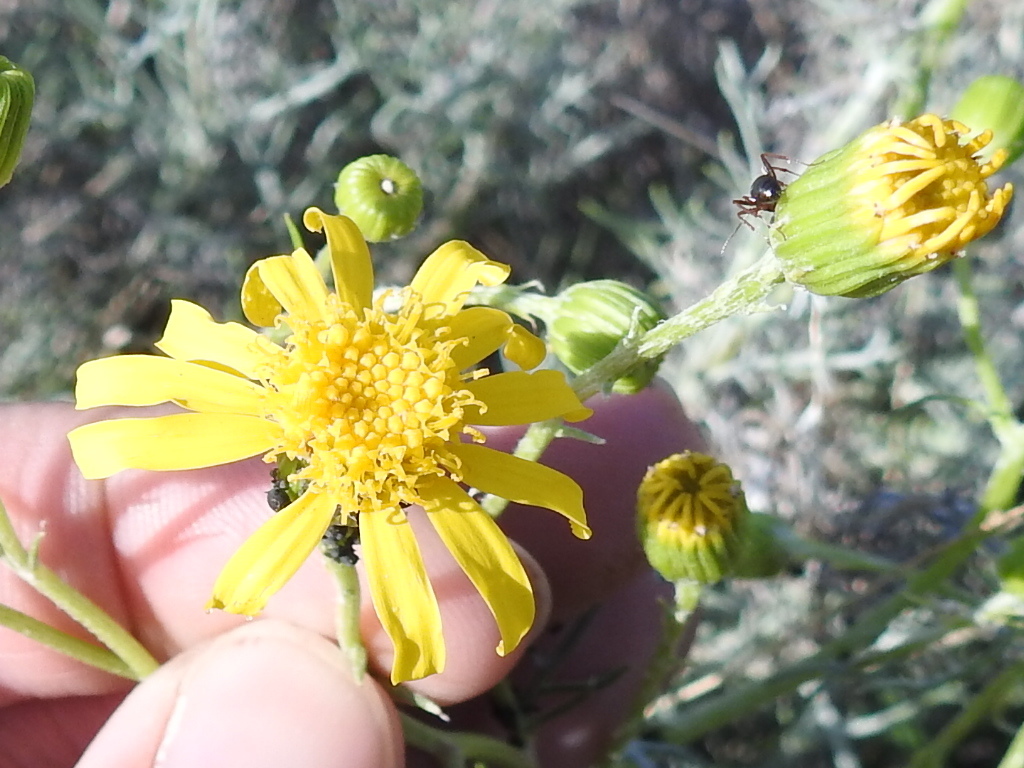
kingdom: Plantae
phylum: Tracheophyta
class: Magnoliopsida
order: Asterales
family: Asteraceae
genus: Senecio
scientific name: Senecio flaccidus
